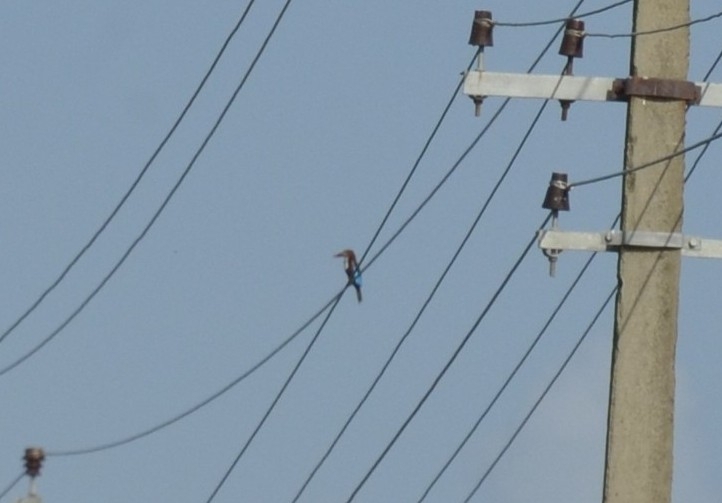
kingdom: Animalia
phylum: Chordata
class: Aves
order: Coraciiformes
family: Alcedinidae
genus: Halcyon
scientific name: Halcyon smyrnensis
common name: White-throated kingfisher
